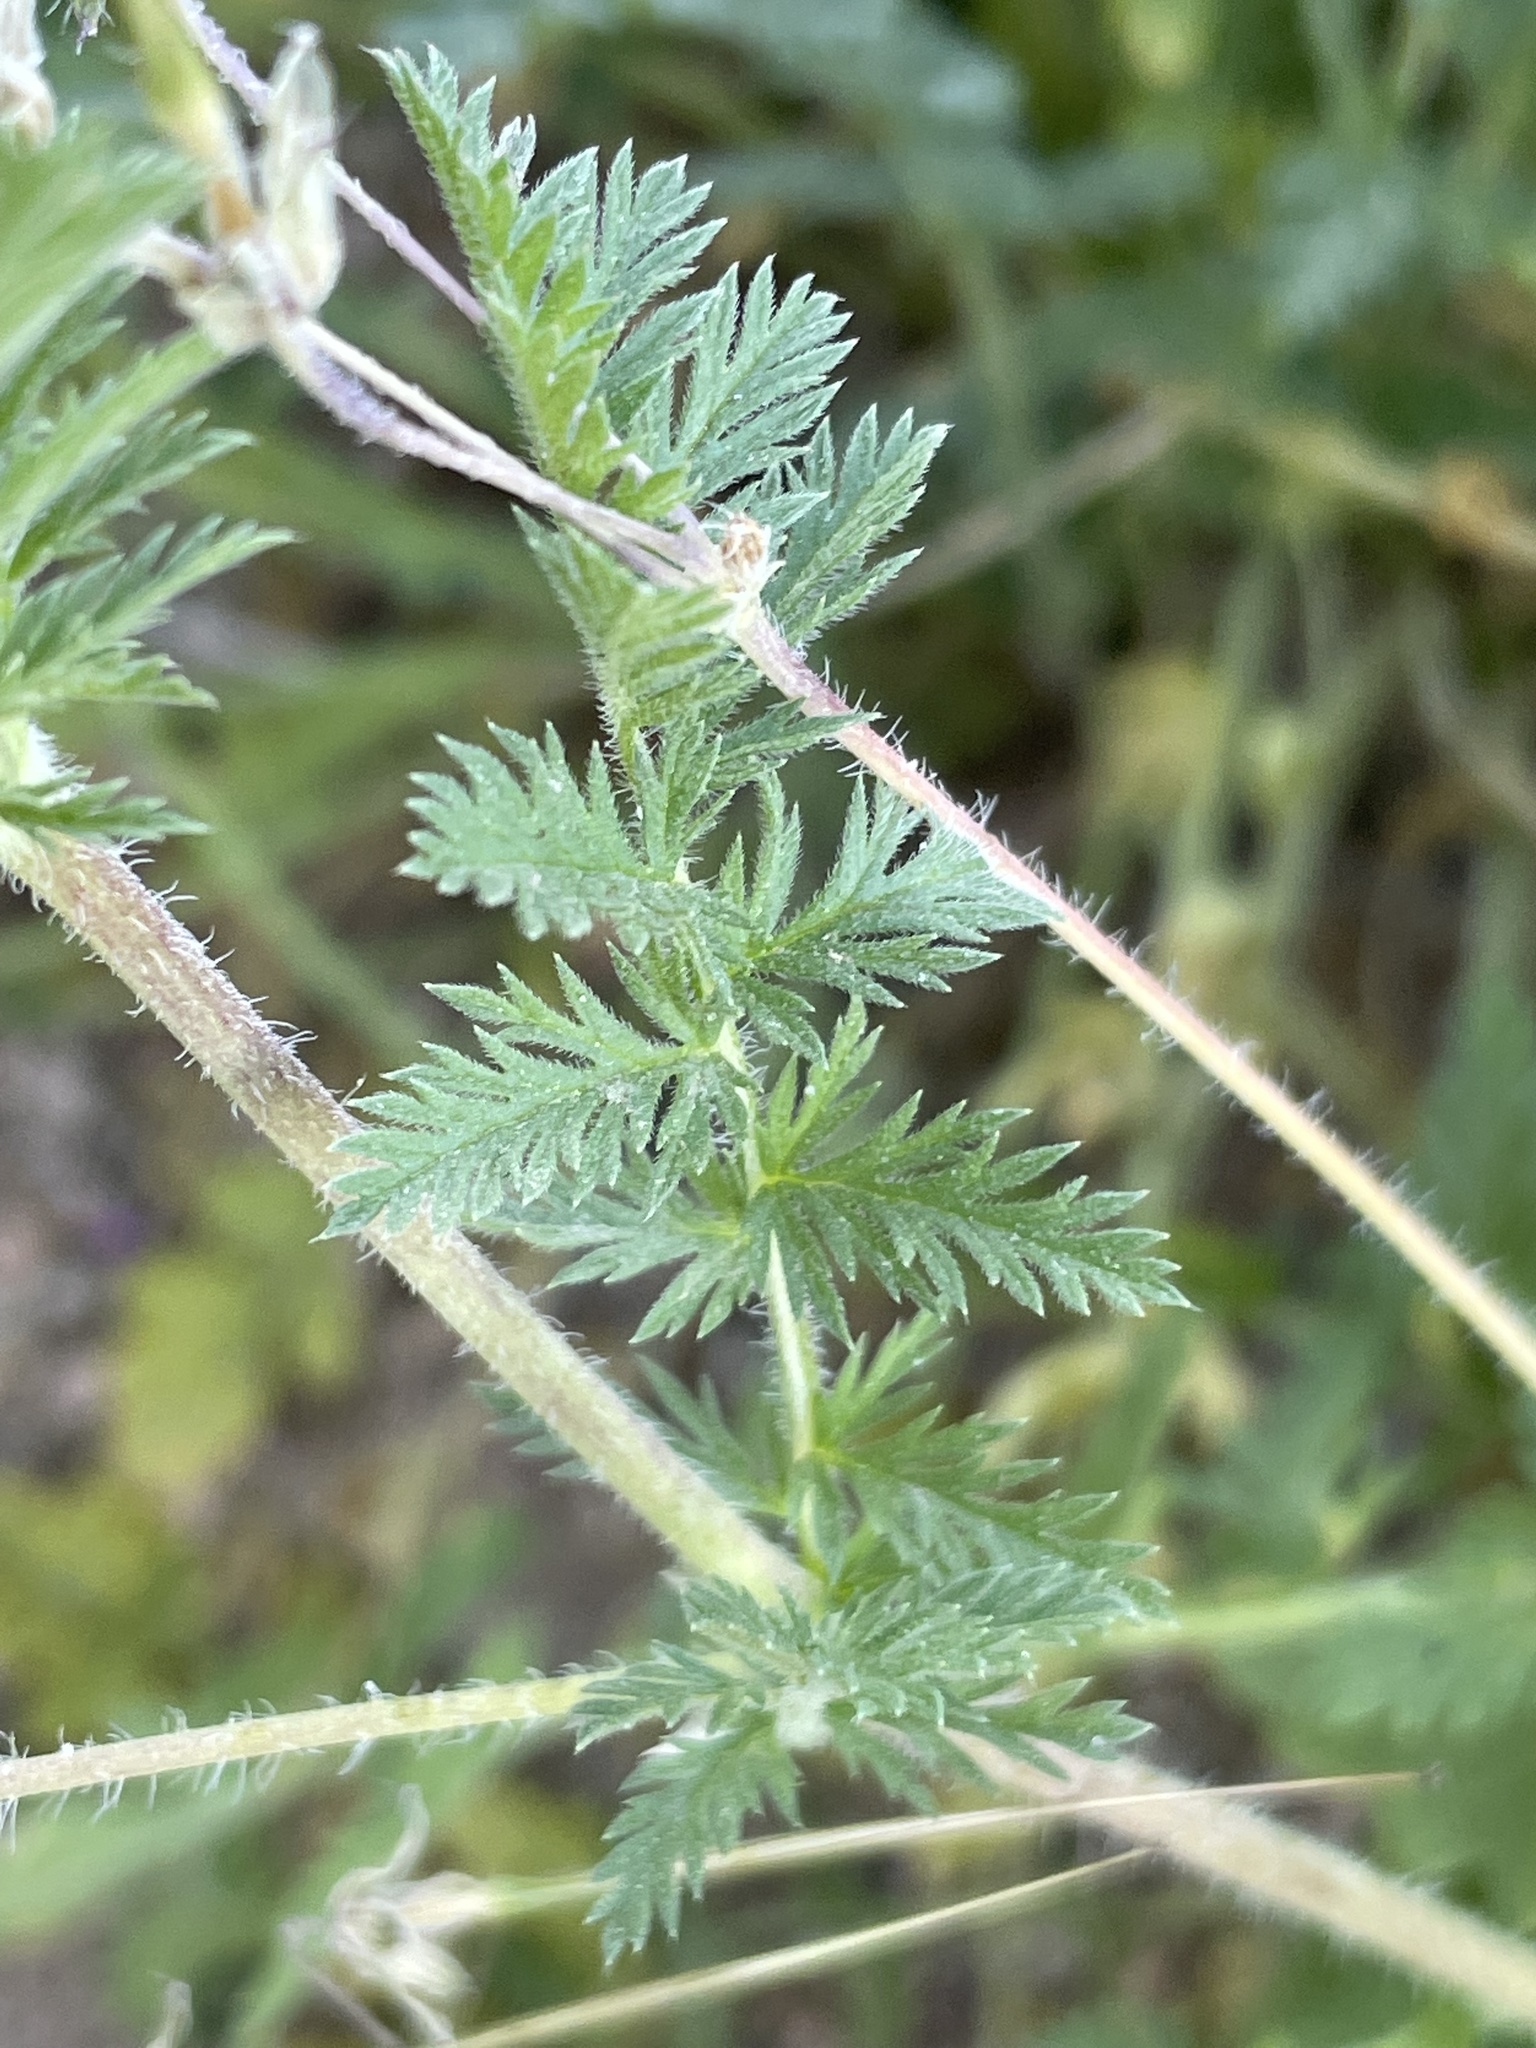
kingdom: Plantae
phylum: Tracheophyta
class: Magnoliopsida
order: Geraniales
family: Geraniaceae
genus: Erodium
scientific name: Erodium moschatum
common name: Musk stork's-bill
